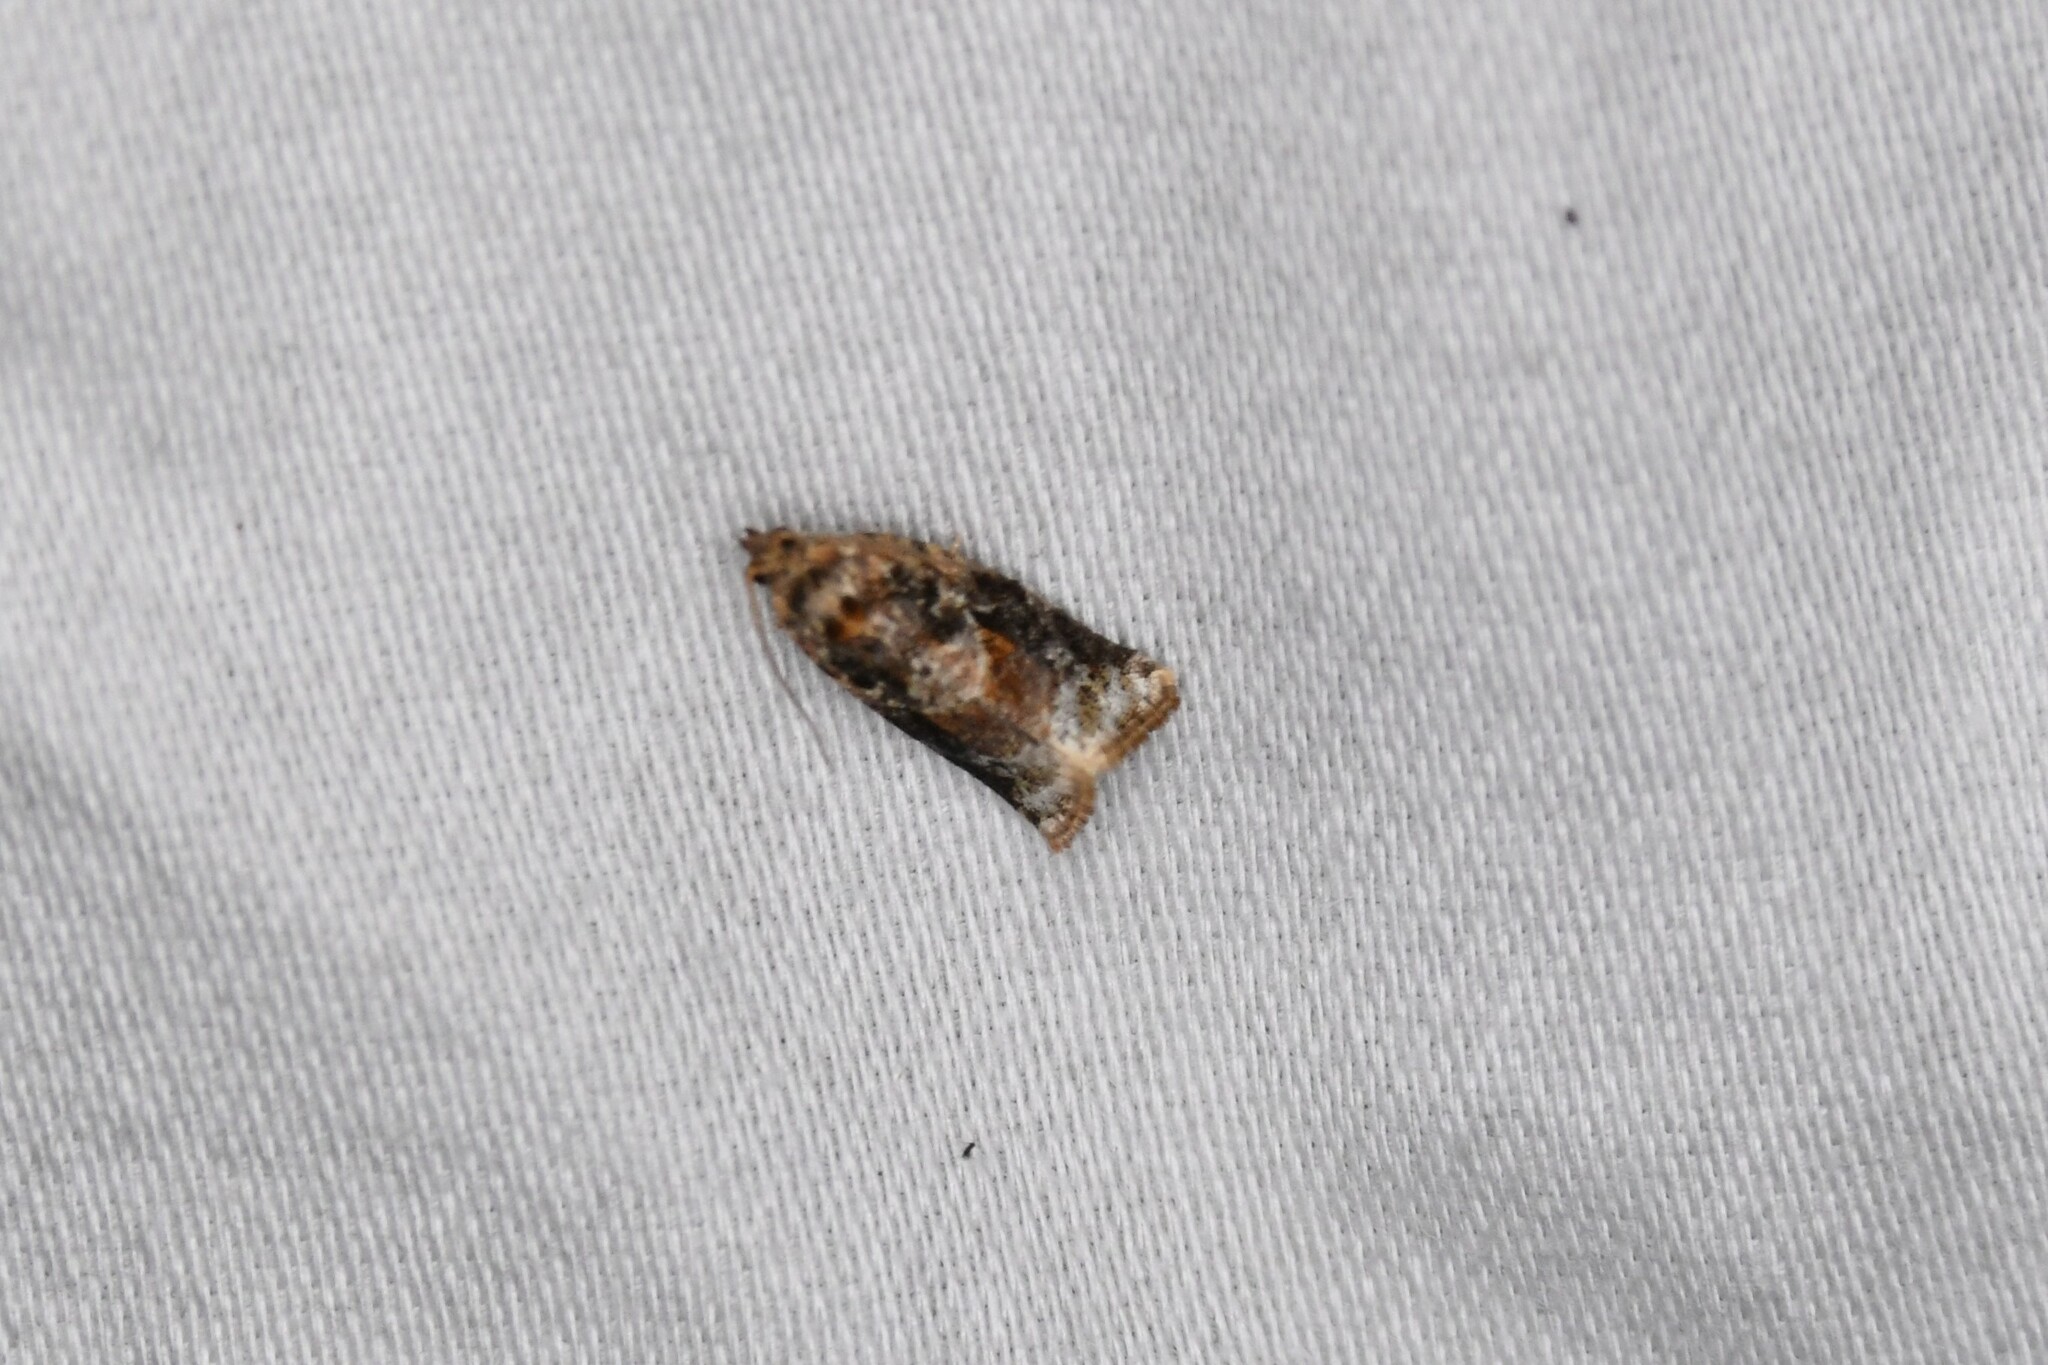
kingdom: Animalia
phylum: Arthropoda
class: Insecta
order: Lepidoptera
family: Tortricidae
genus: Argyrotaenia
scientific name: Argyrotaenia velutinana
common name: Red-banded leafroller moth
